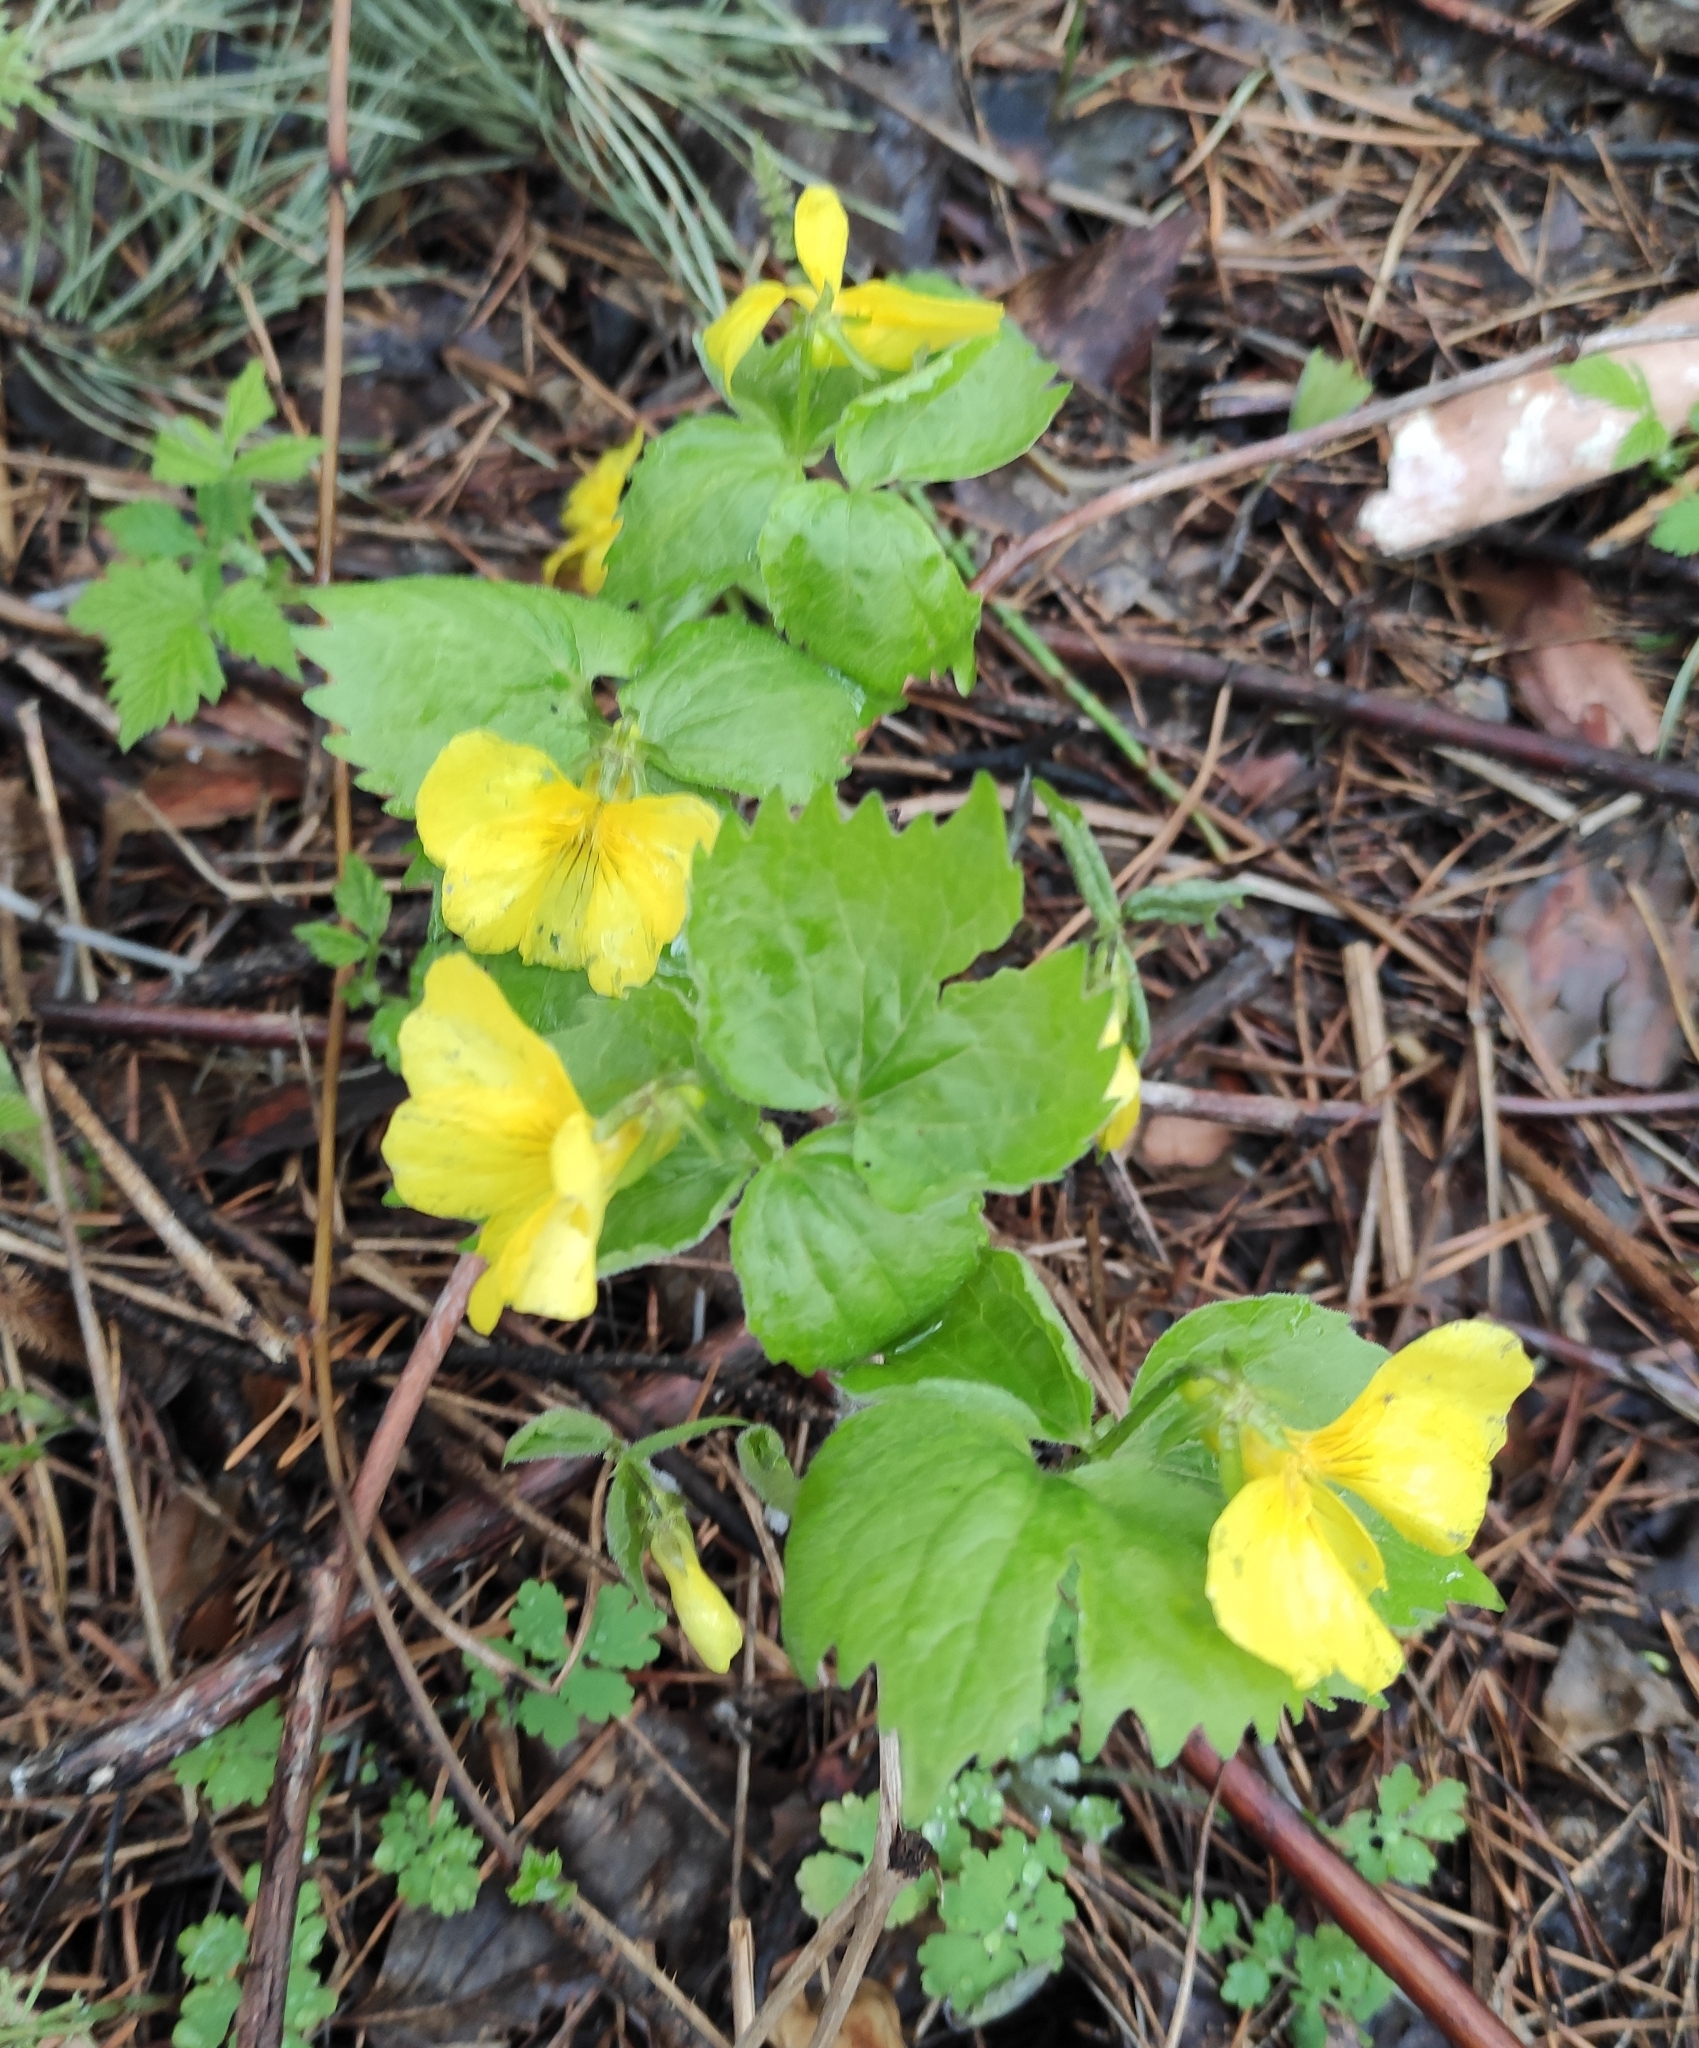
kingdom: Plantae
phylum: Tracheophyta
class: Magnoliopsida
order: Malpighiales
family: Violaceae
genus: Viola
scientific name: Viola uniflora
